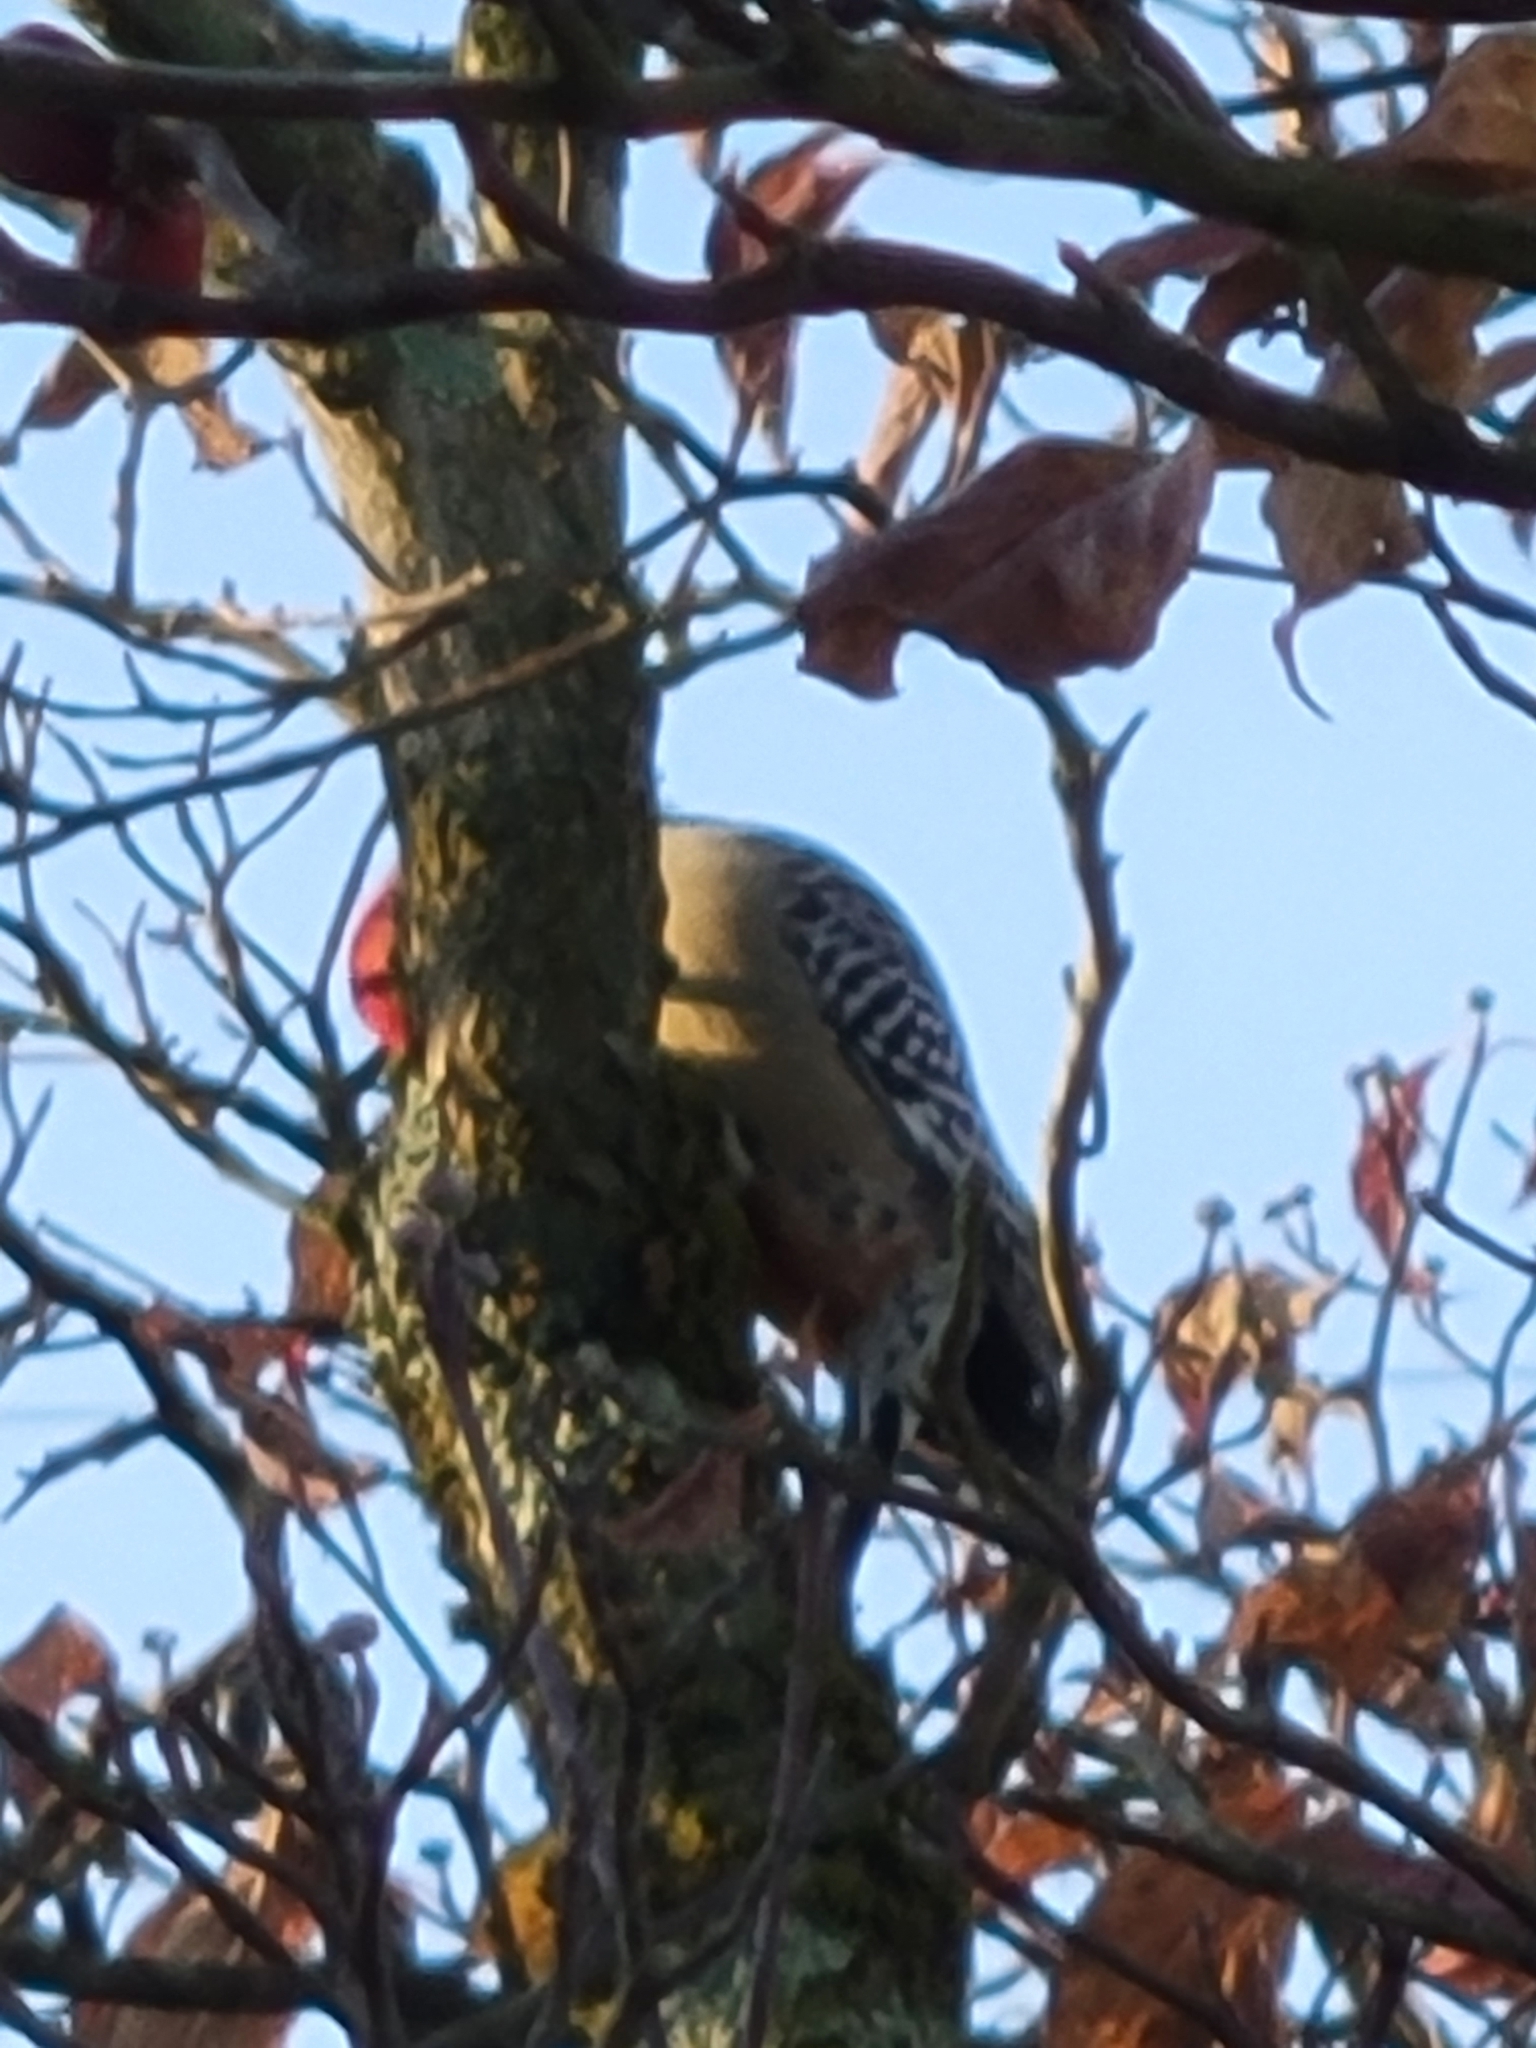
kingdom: Animalia
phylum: Chordata
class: Aves
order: Piciformes
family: Picidae
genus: Melanerpes
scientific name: Melanerpes carolinus
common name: Red-bellied woodpecker
